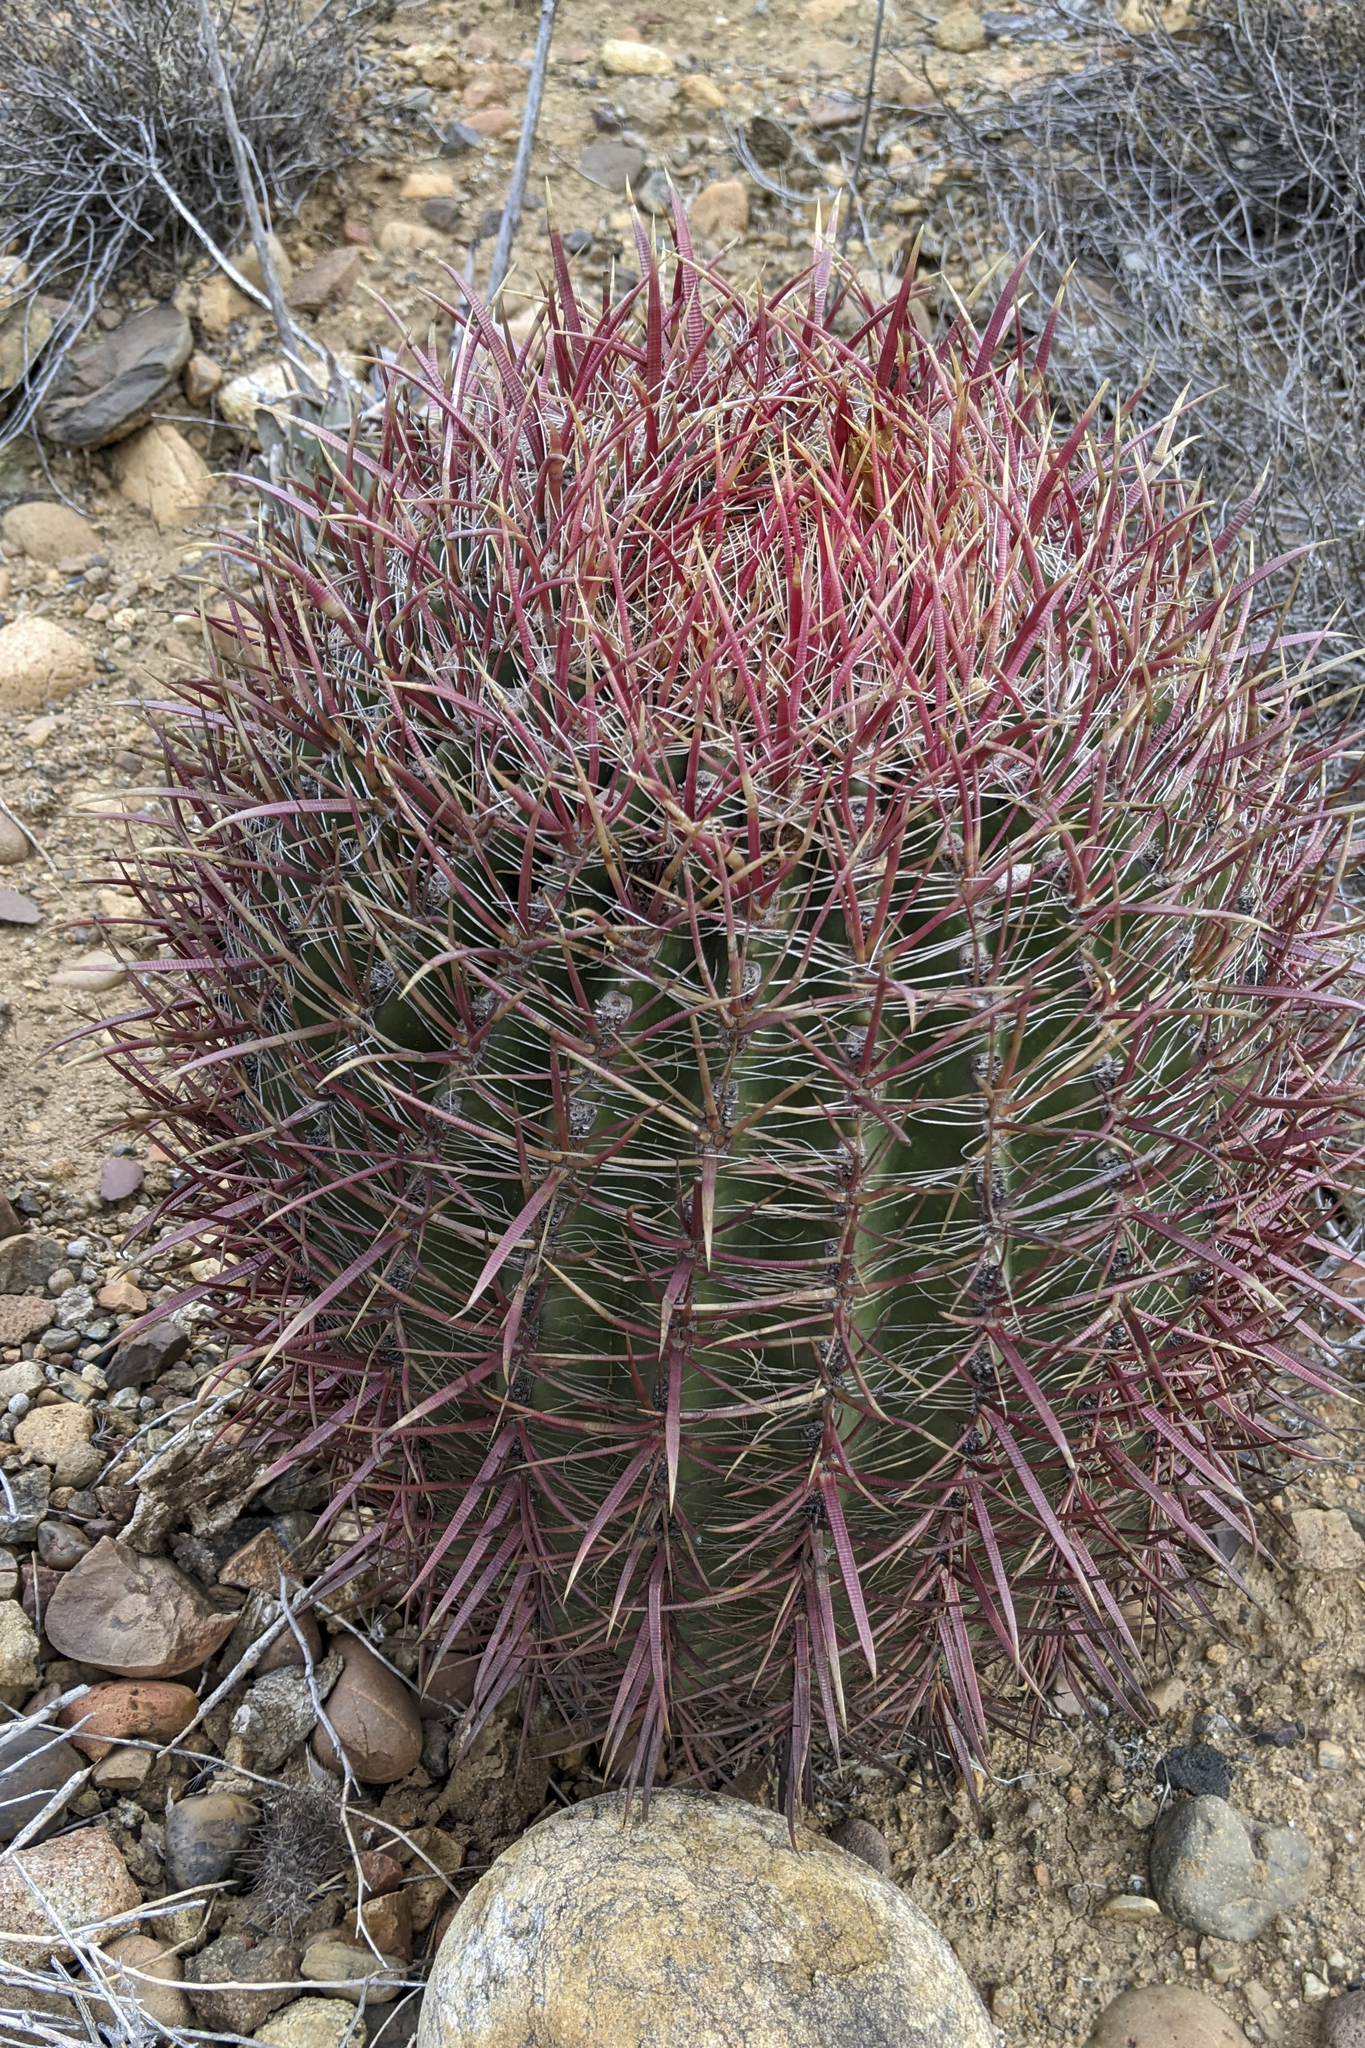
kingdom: Plantae
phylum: Tracheophyta
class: Magnoliopsida
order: Caryophyllales
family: Cactaceae
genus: Ferocactus
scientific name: Ferocactus gracilis
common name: Fire barrel cactus
